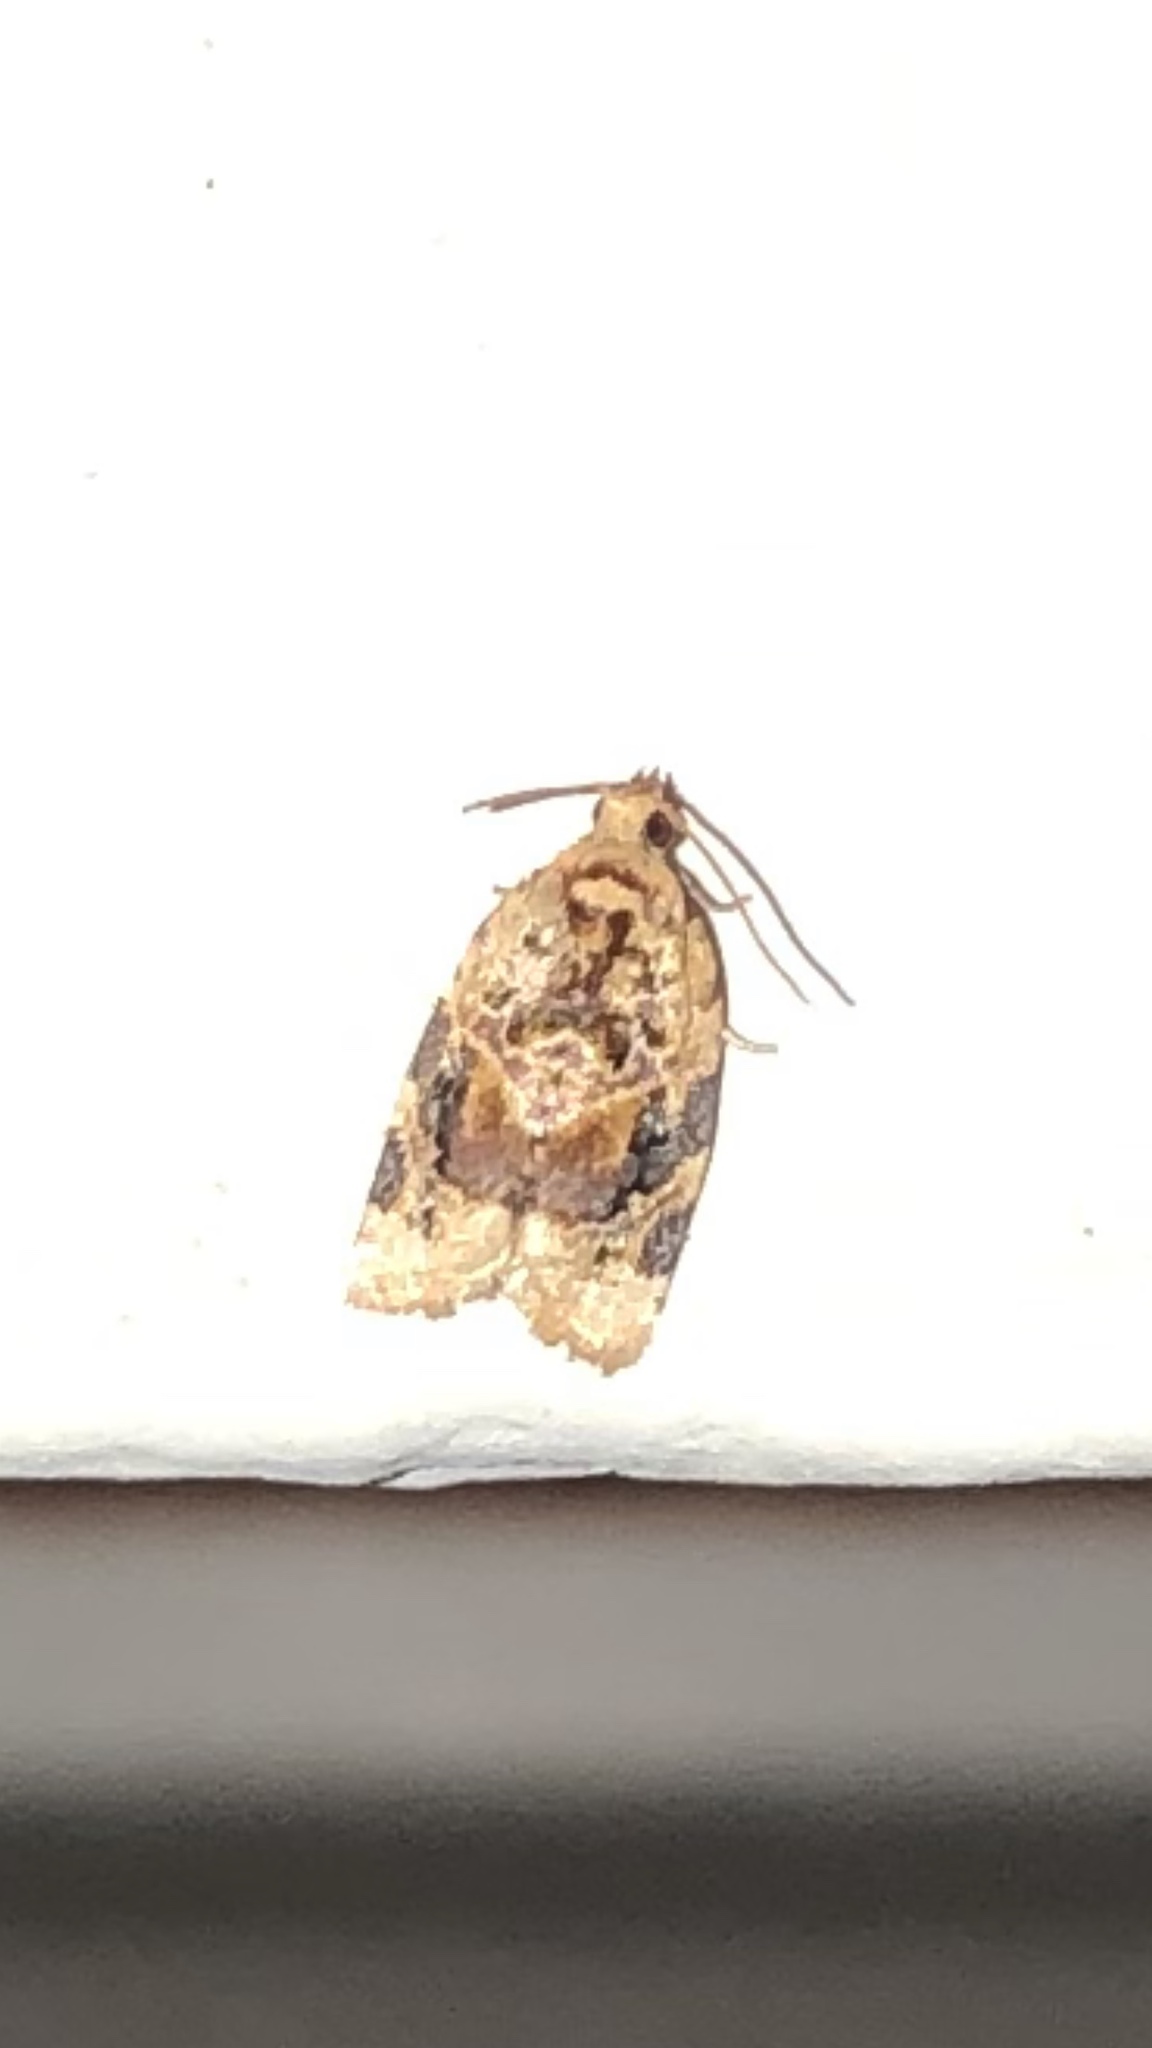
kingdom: Animalia
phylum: Arthropoda
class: Insecta
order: Lepidoptera
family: Tortricidae
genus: Argyrotaenia
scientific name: Argyrotaenia velutinana
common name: Red-banded leafroller moth
